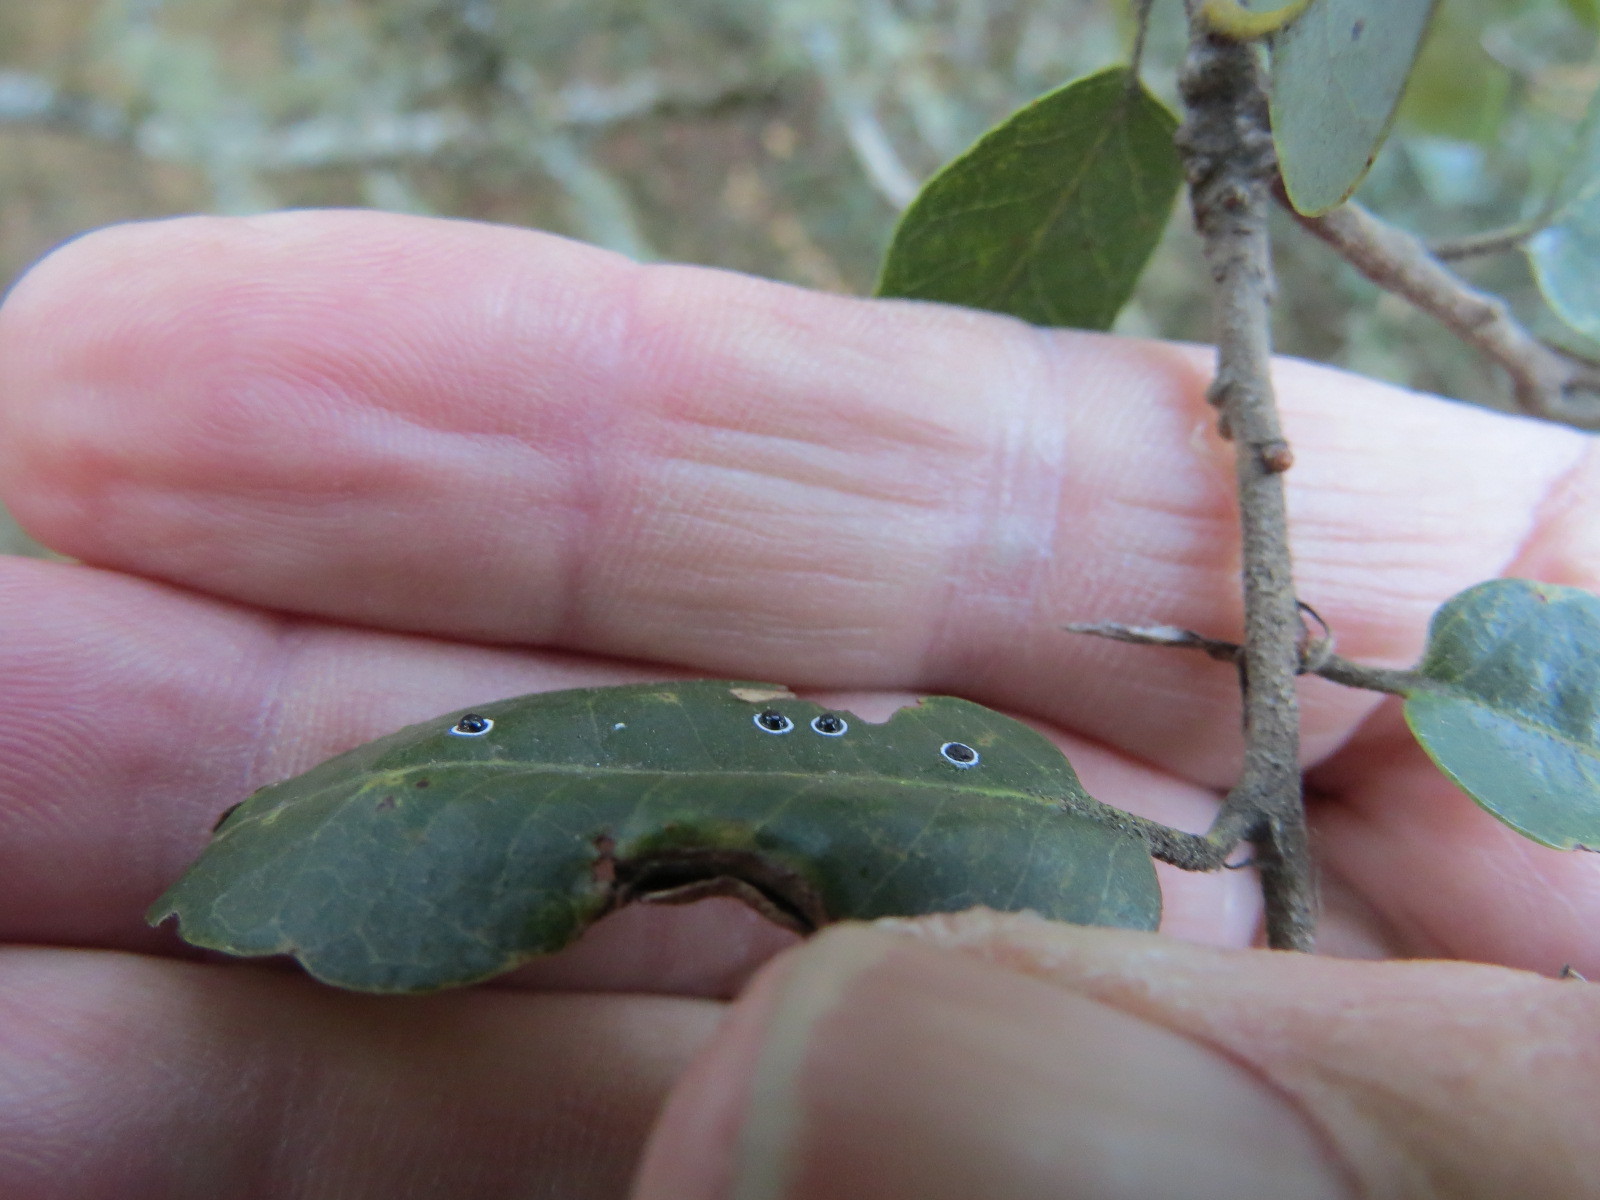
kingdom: Animalia
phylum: Arthropoda
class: Insecta
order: Hemiptera
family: Aleyrodidae
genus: Tetraleurodes
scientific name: Tetraleurodes perileuca
